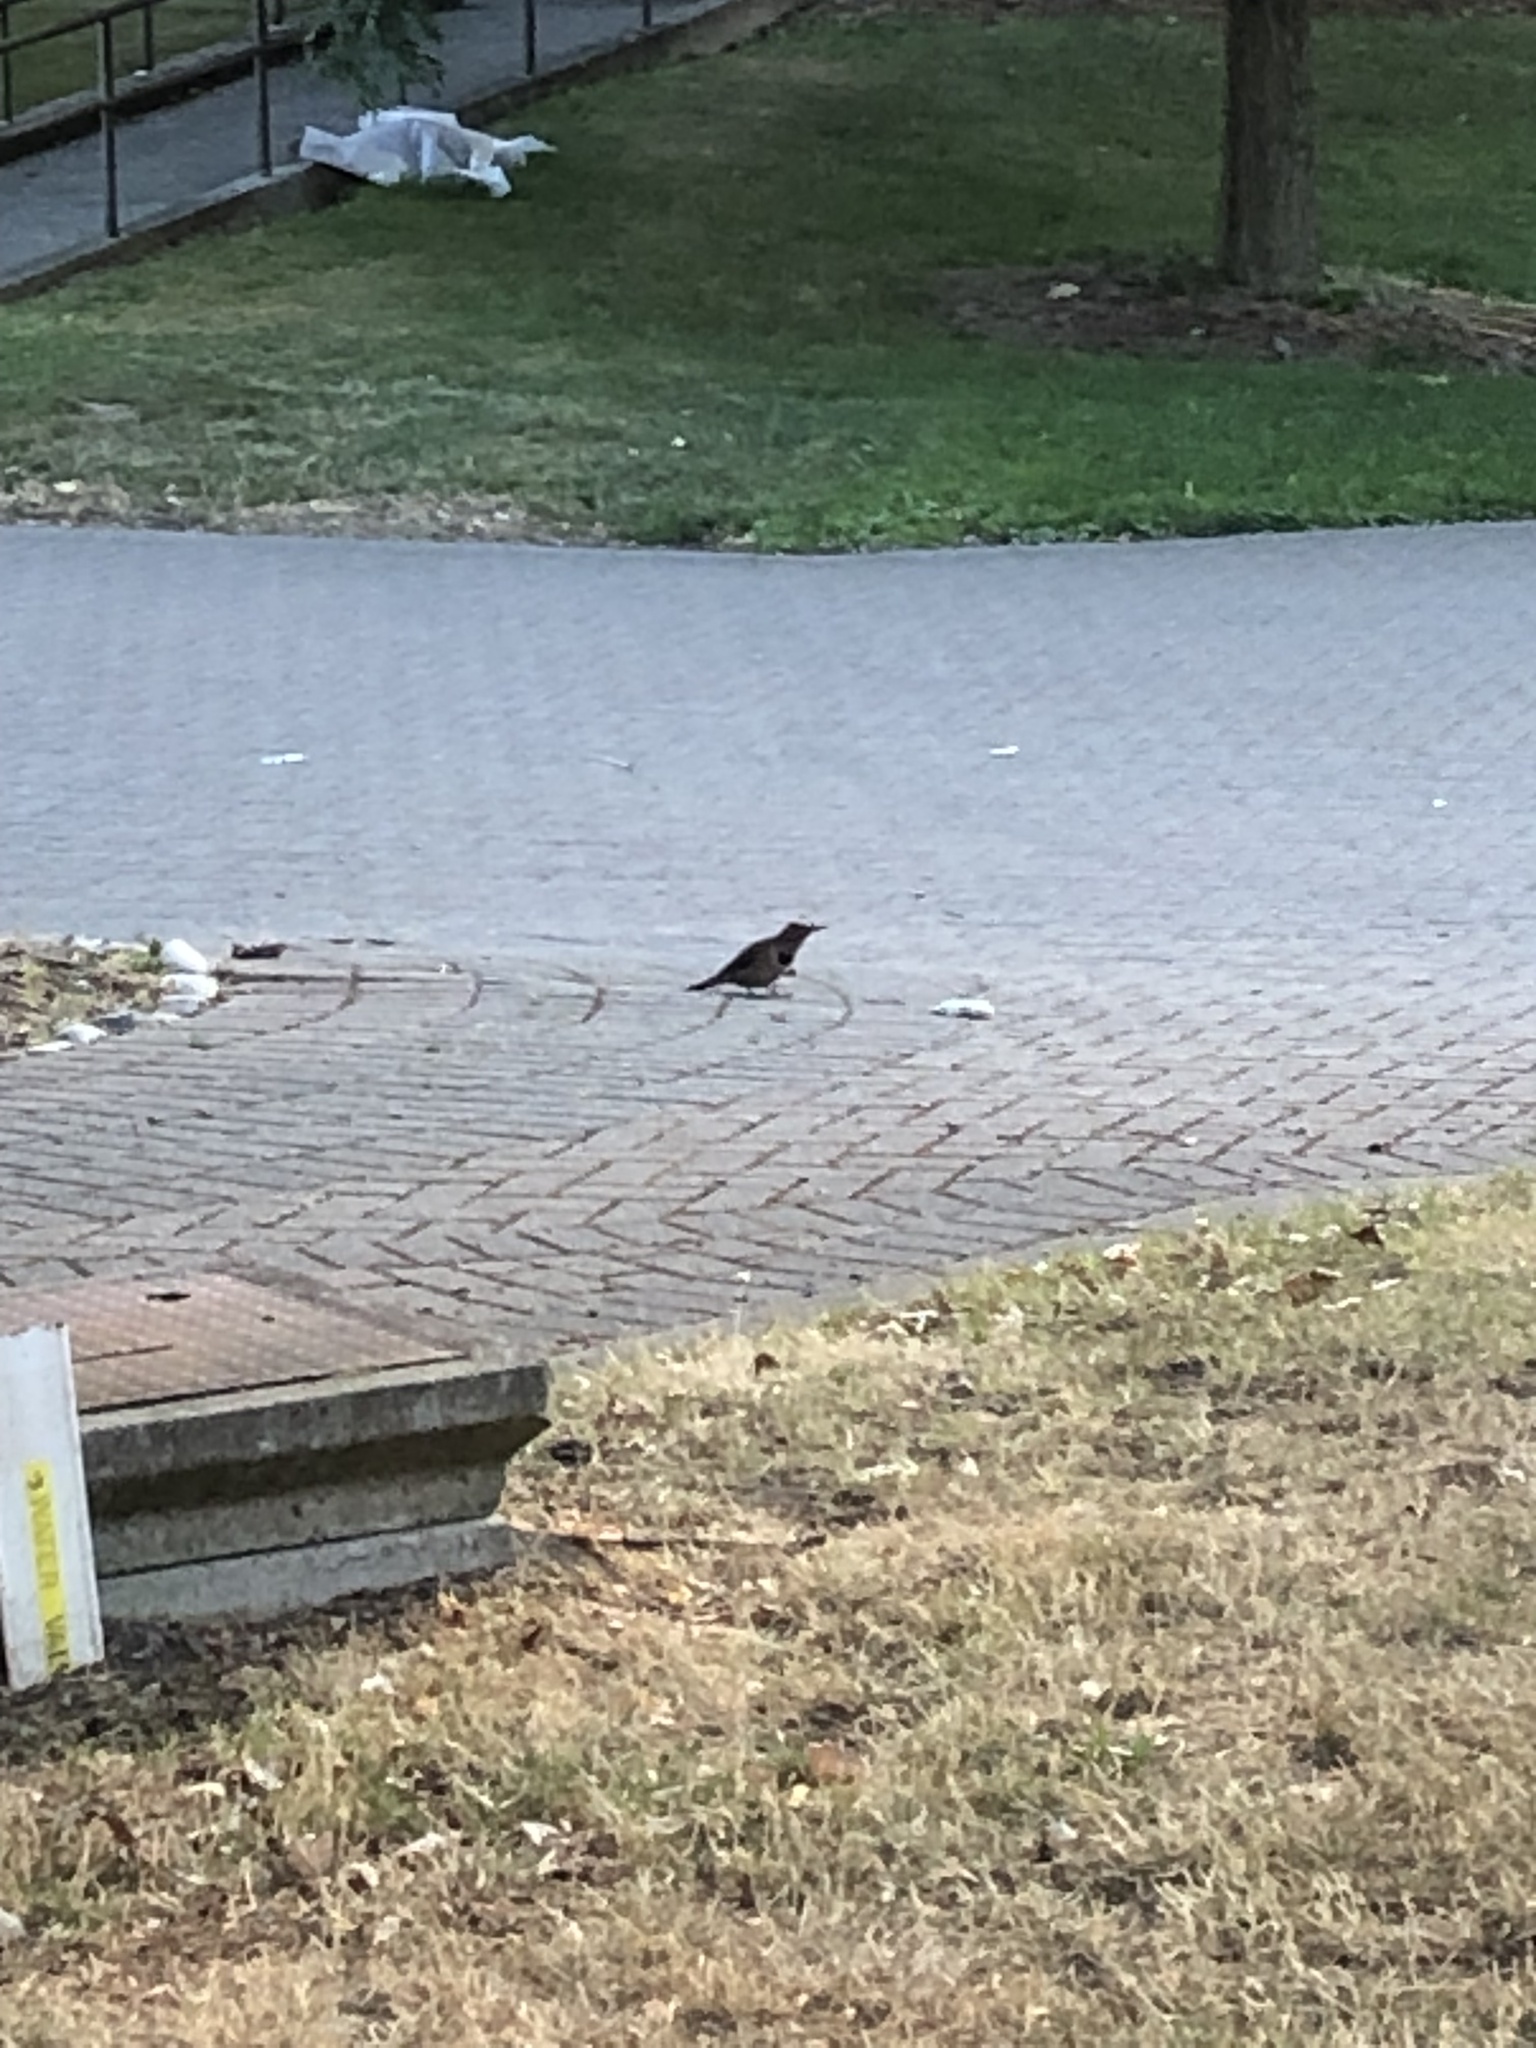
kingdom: Animalia
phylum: Chordata
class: Aves
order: Piciformes
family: Picidae
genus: Colaptes
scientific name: Colaptes auratus
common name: Northern flicker
